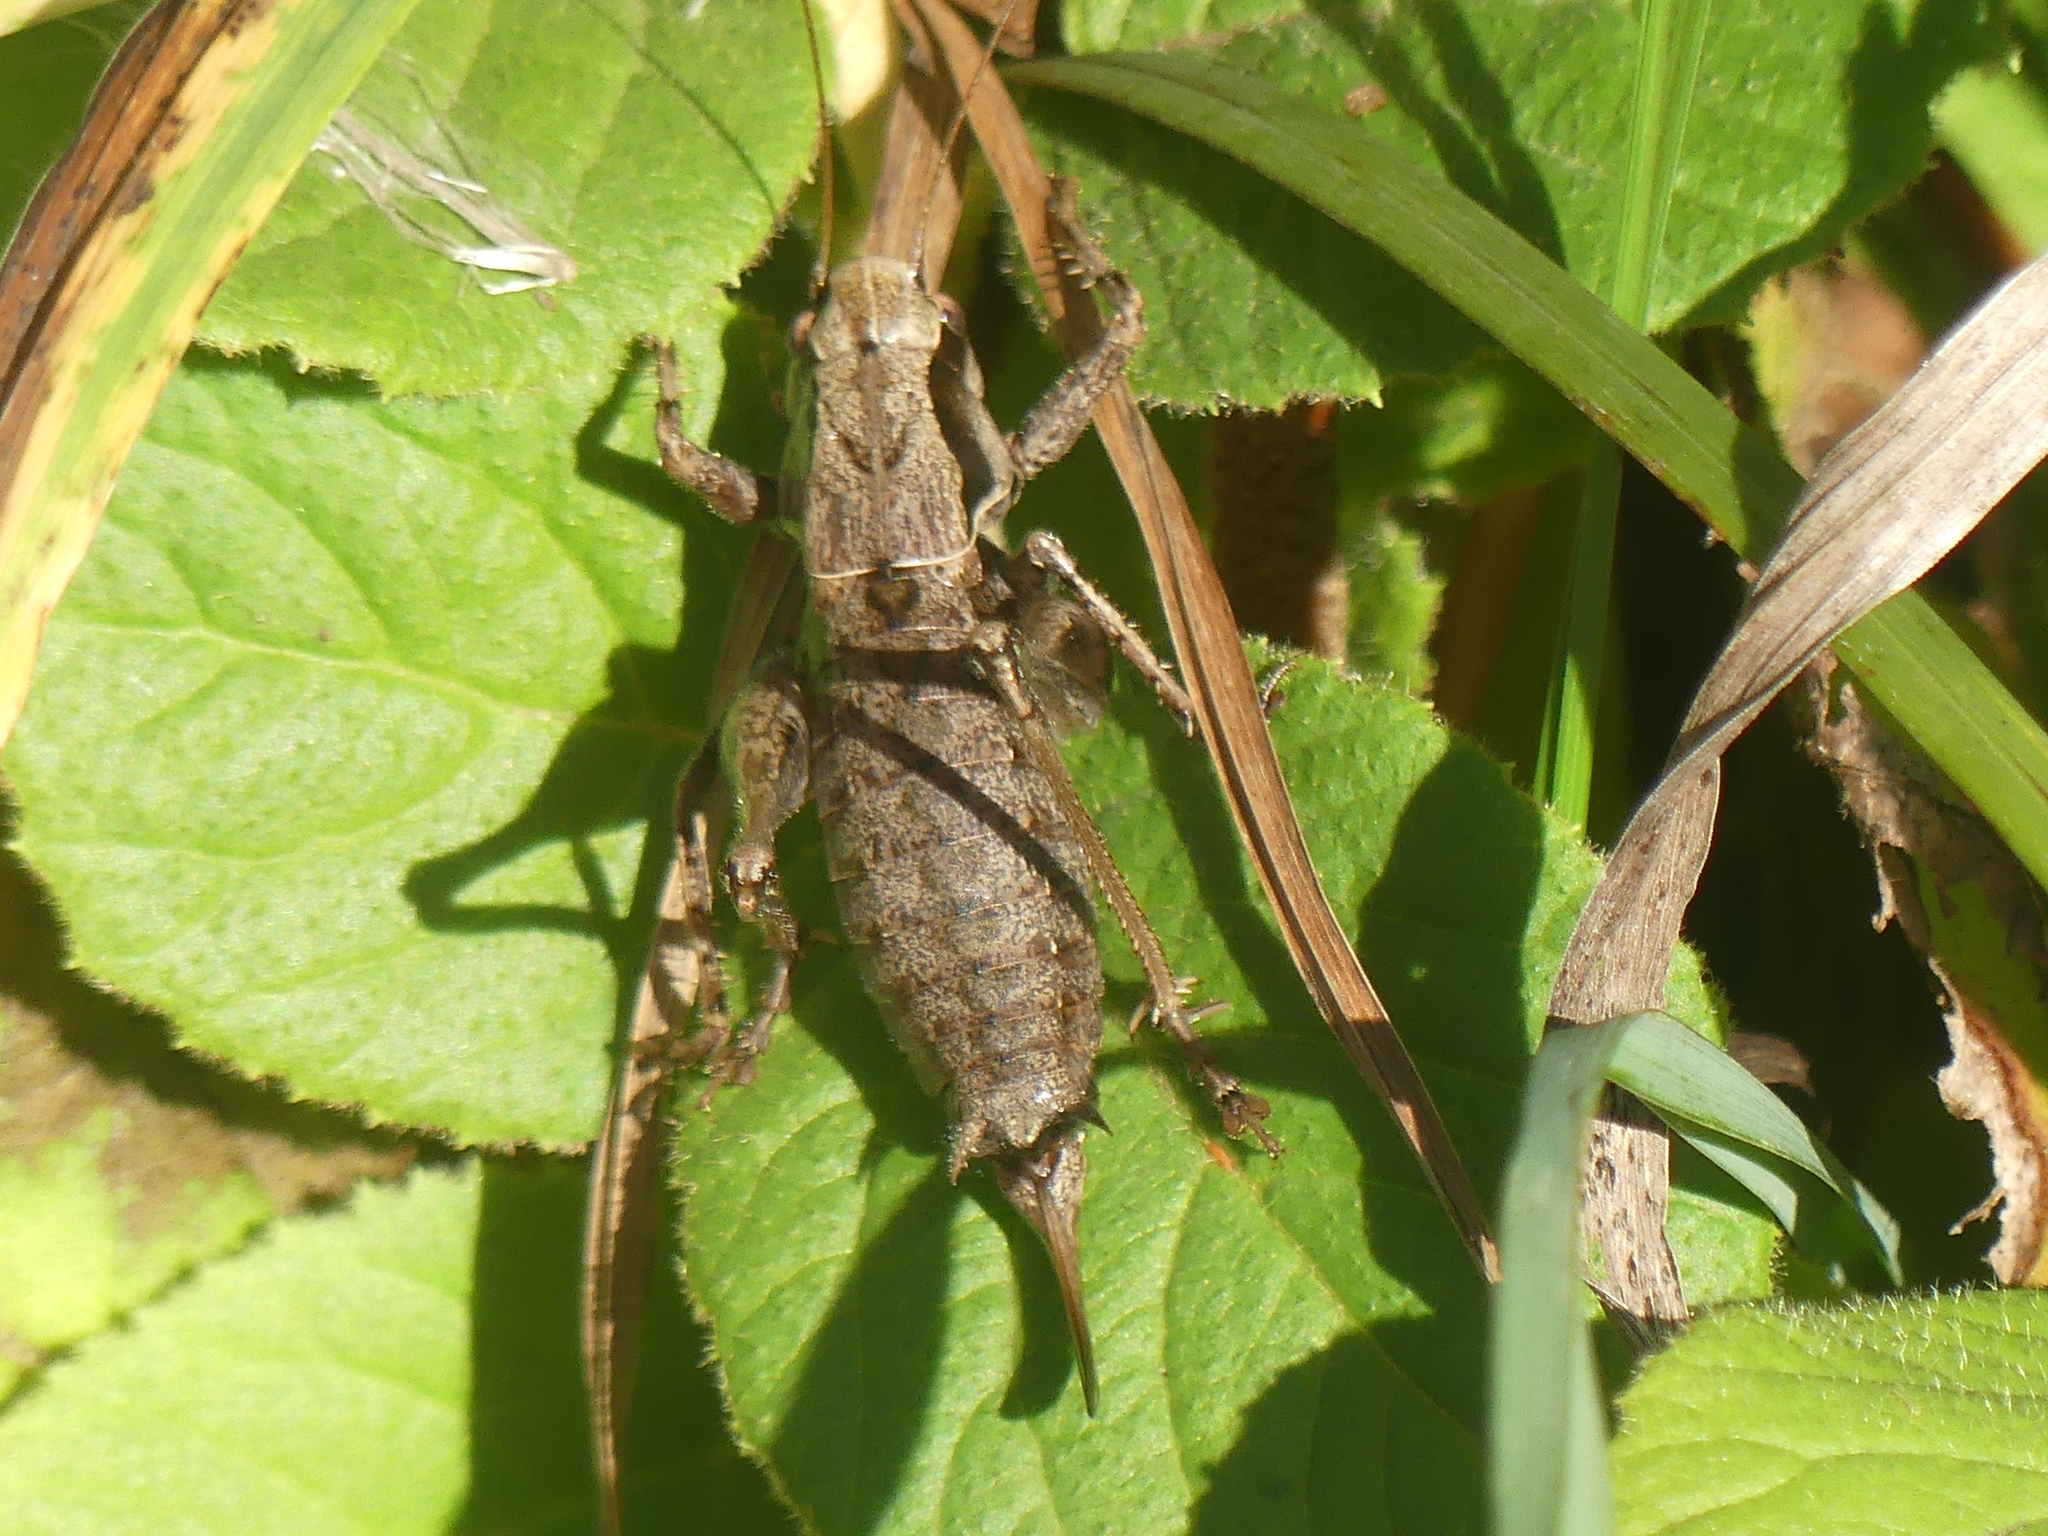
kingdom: Animalia
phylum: Arthropoda
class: Insecta
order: Orthoptera
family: Tettigoniidae
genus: Pholidoptera
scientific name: Pholidoptera griseoaptera
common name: Dark bush-cricket
